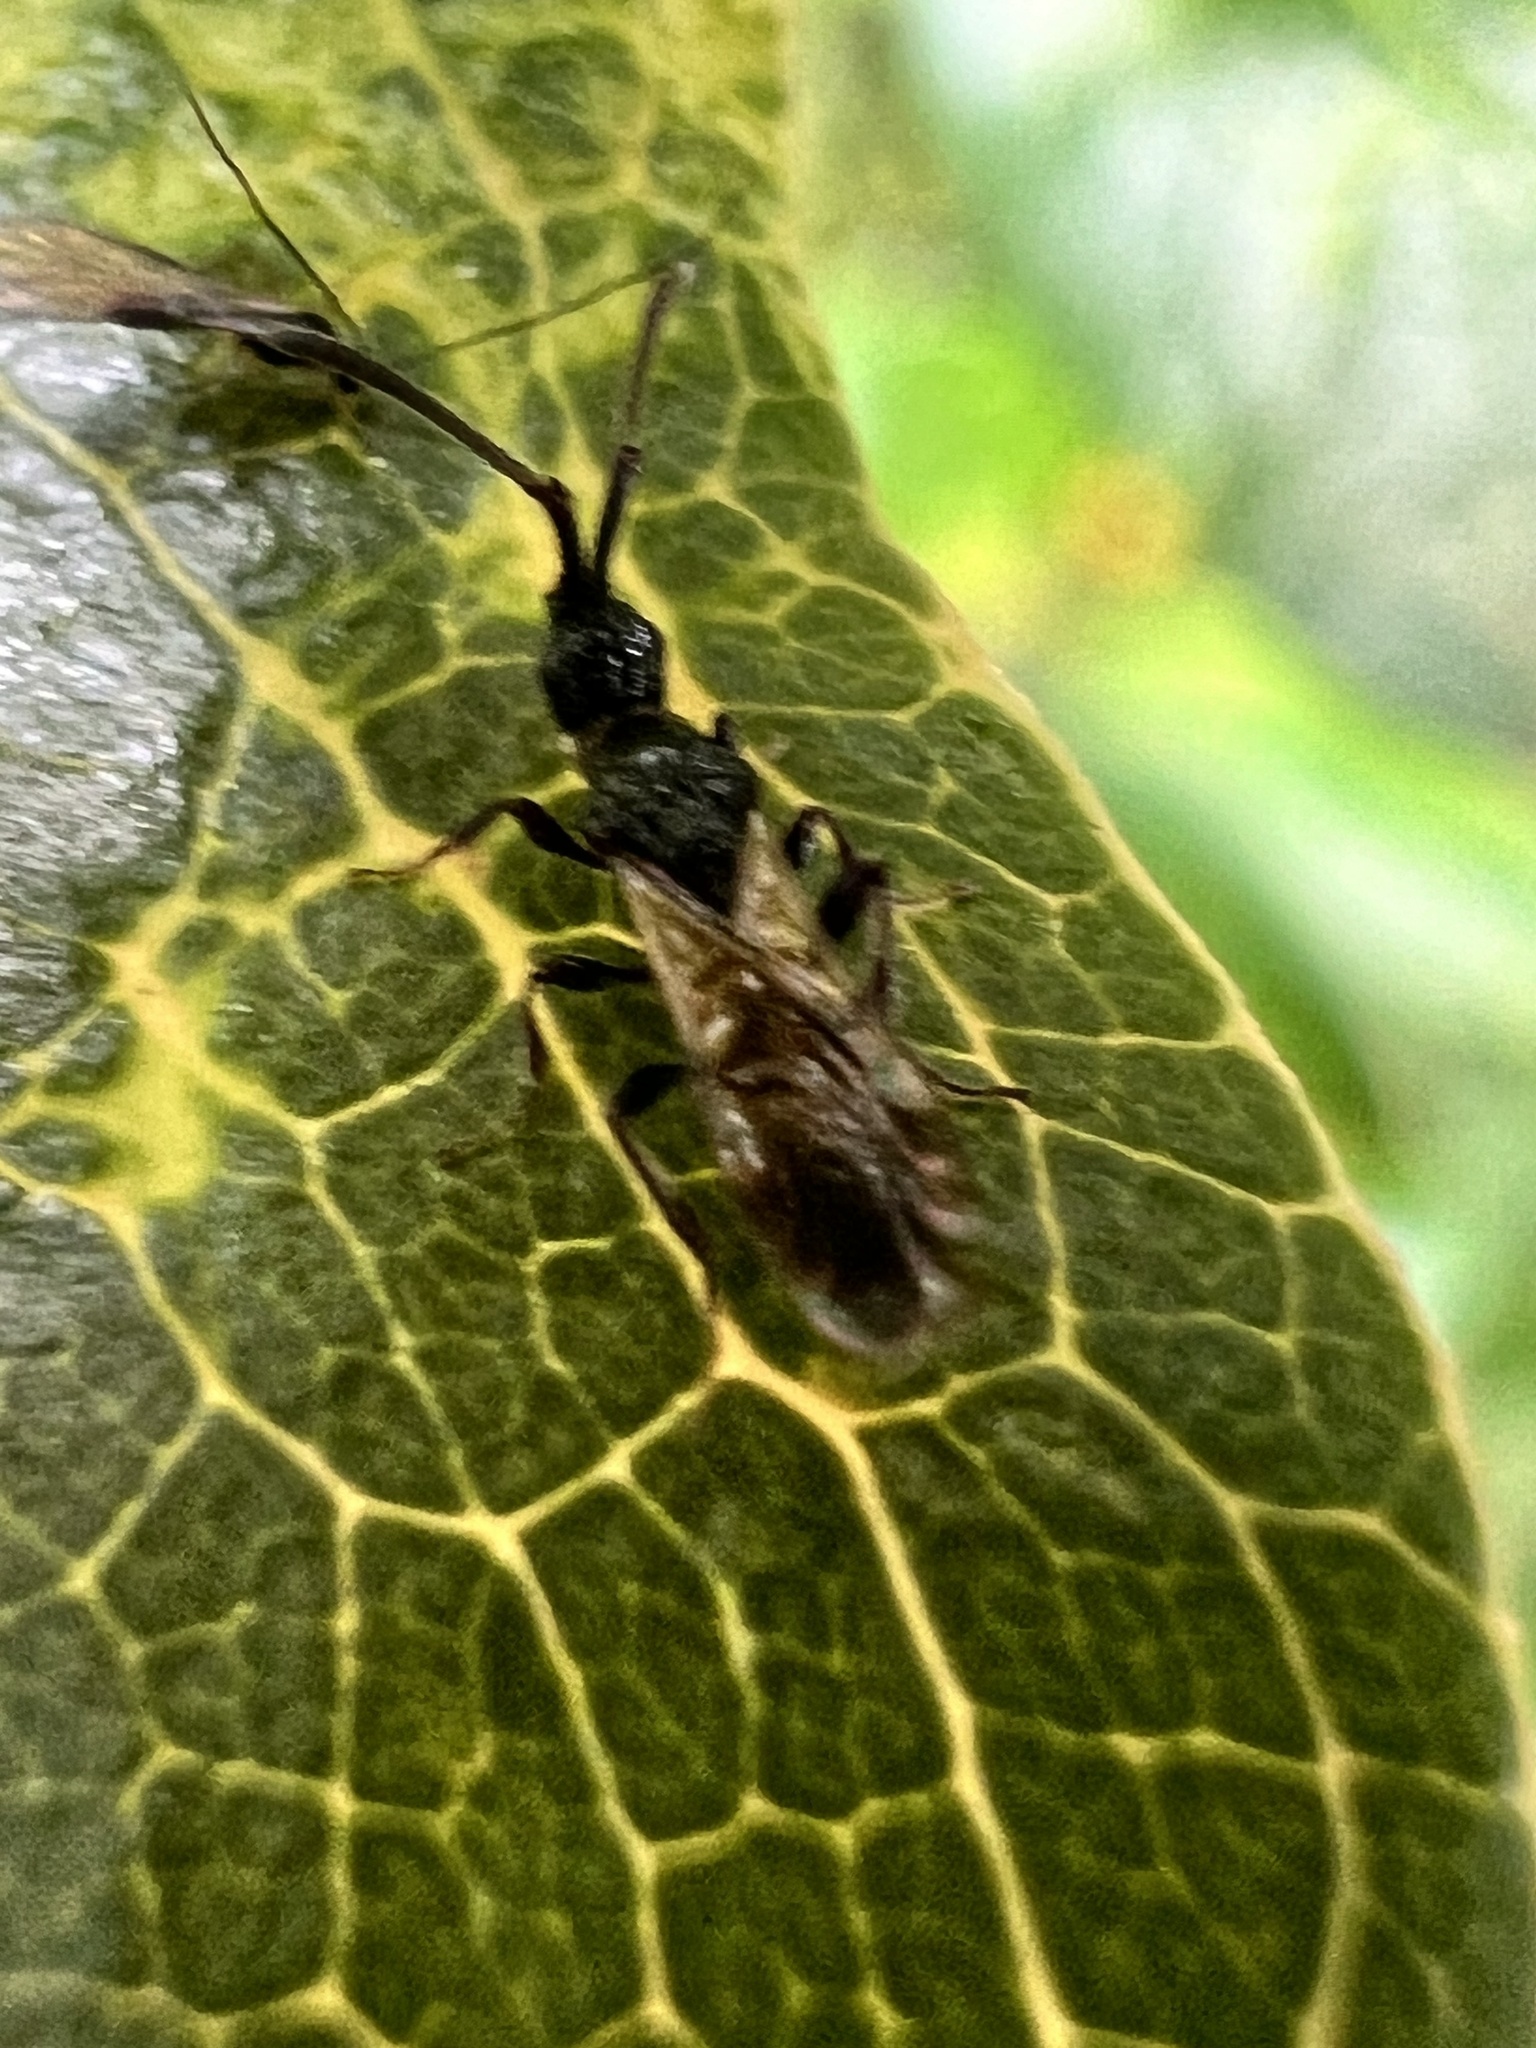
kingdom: Animalia
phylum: Arthropoda
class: Insecta
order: Hymenoptera
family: Diapriidae
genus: Neurogalesus
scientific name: Neurogalesus carinatus
